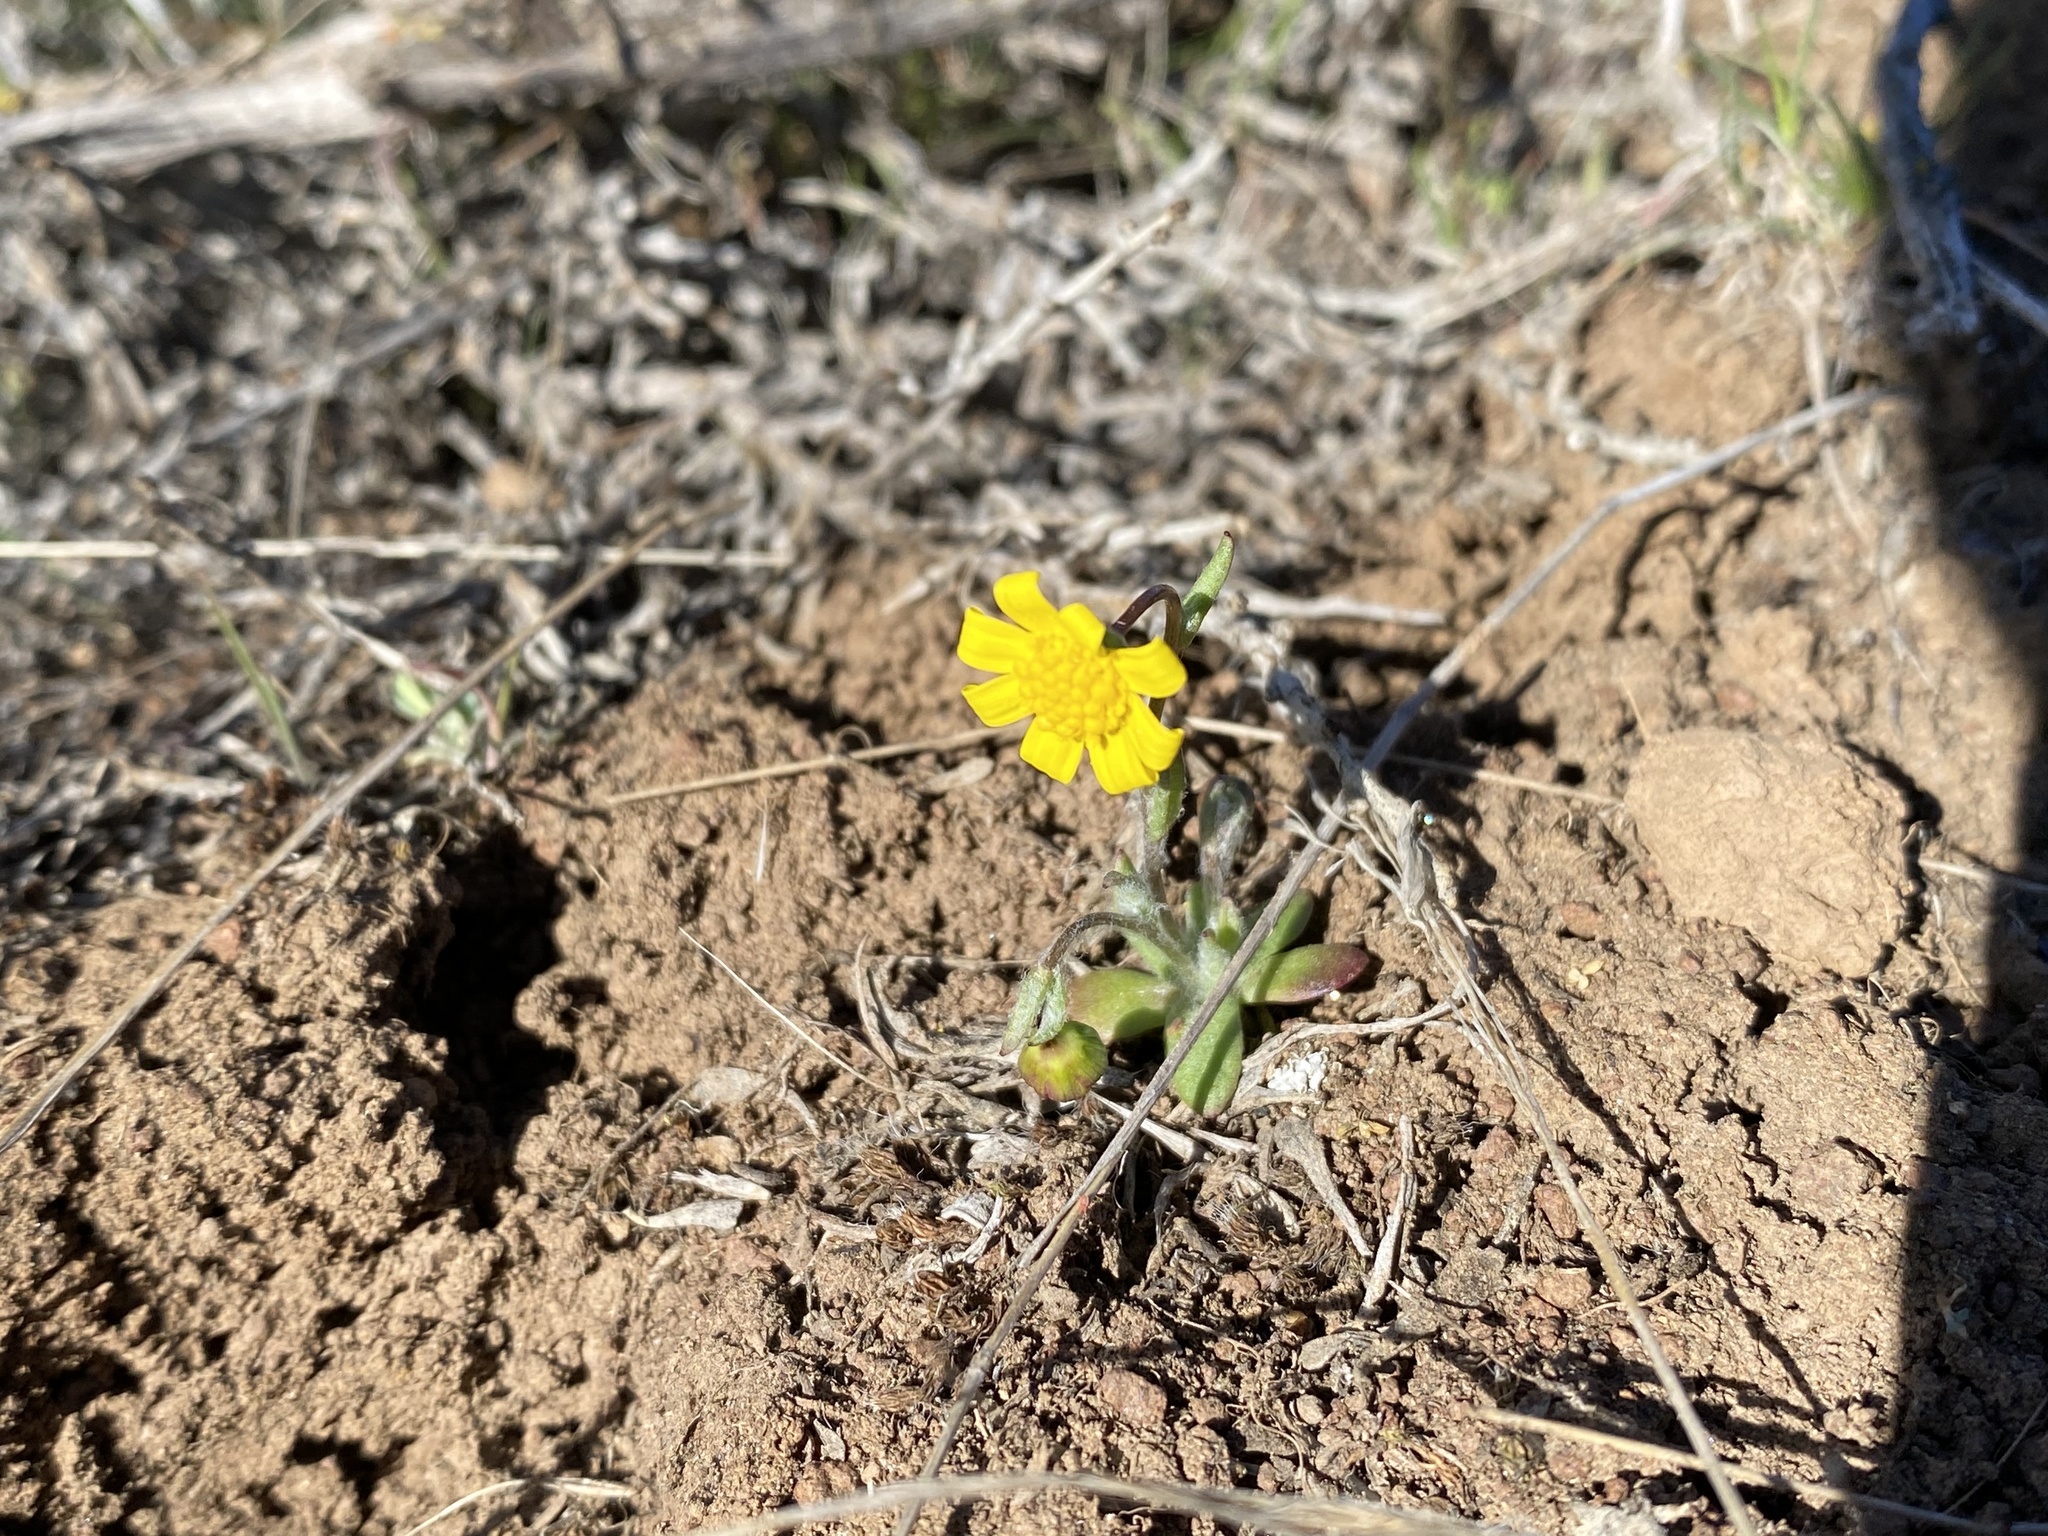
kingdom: Plantae
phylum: Tracheophyta
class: Magnoliopsida
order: Asterales
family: Asteraceae
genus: Crocidium
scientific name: Crocidium multicaule
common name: Common spring gold
